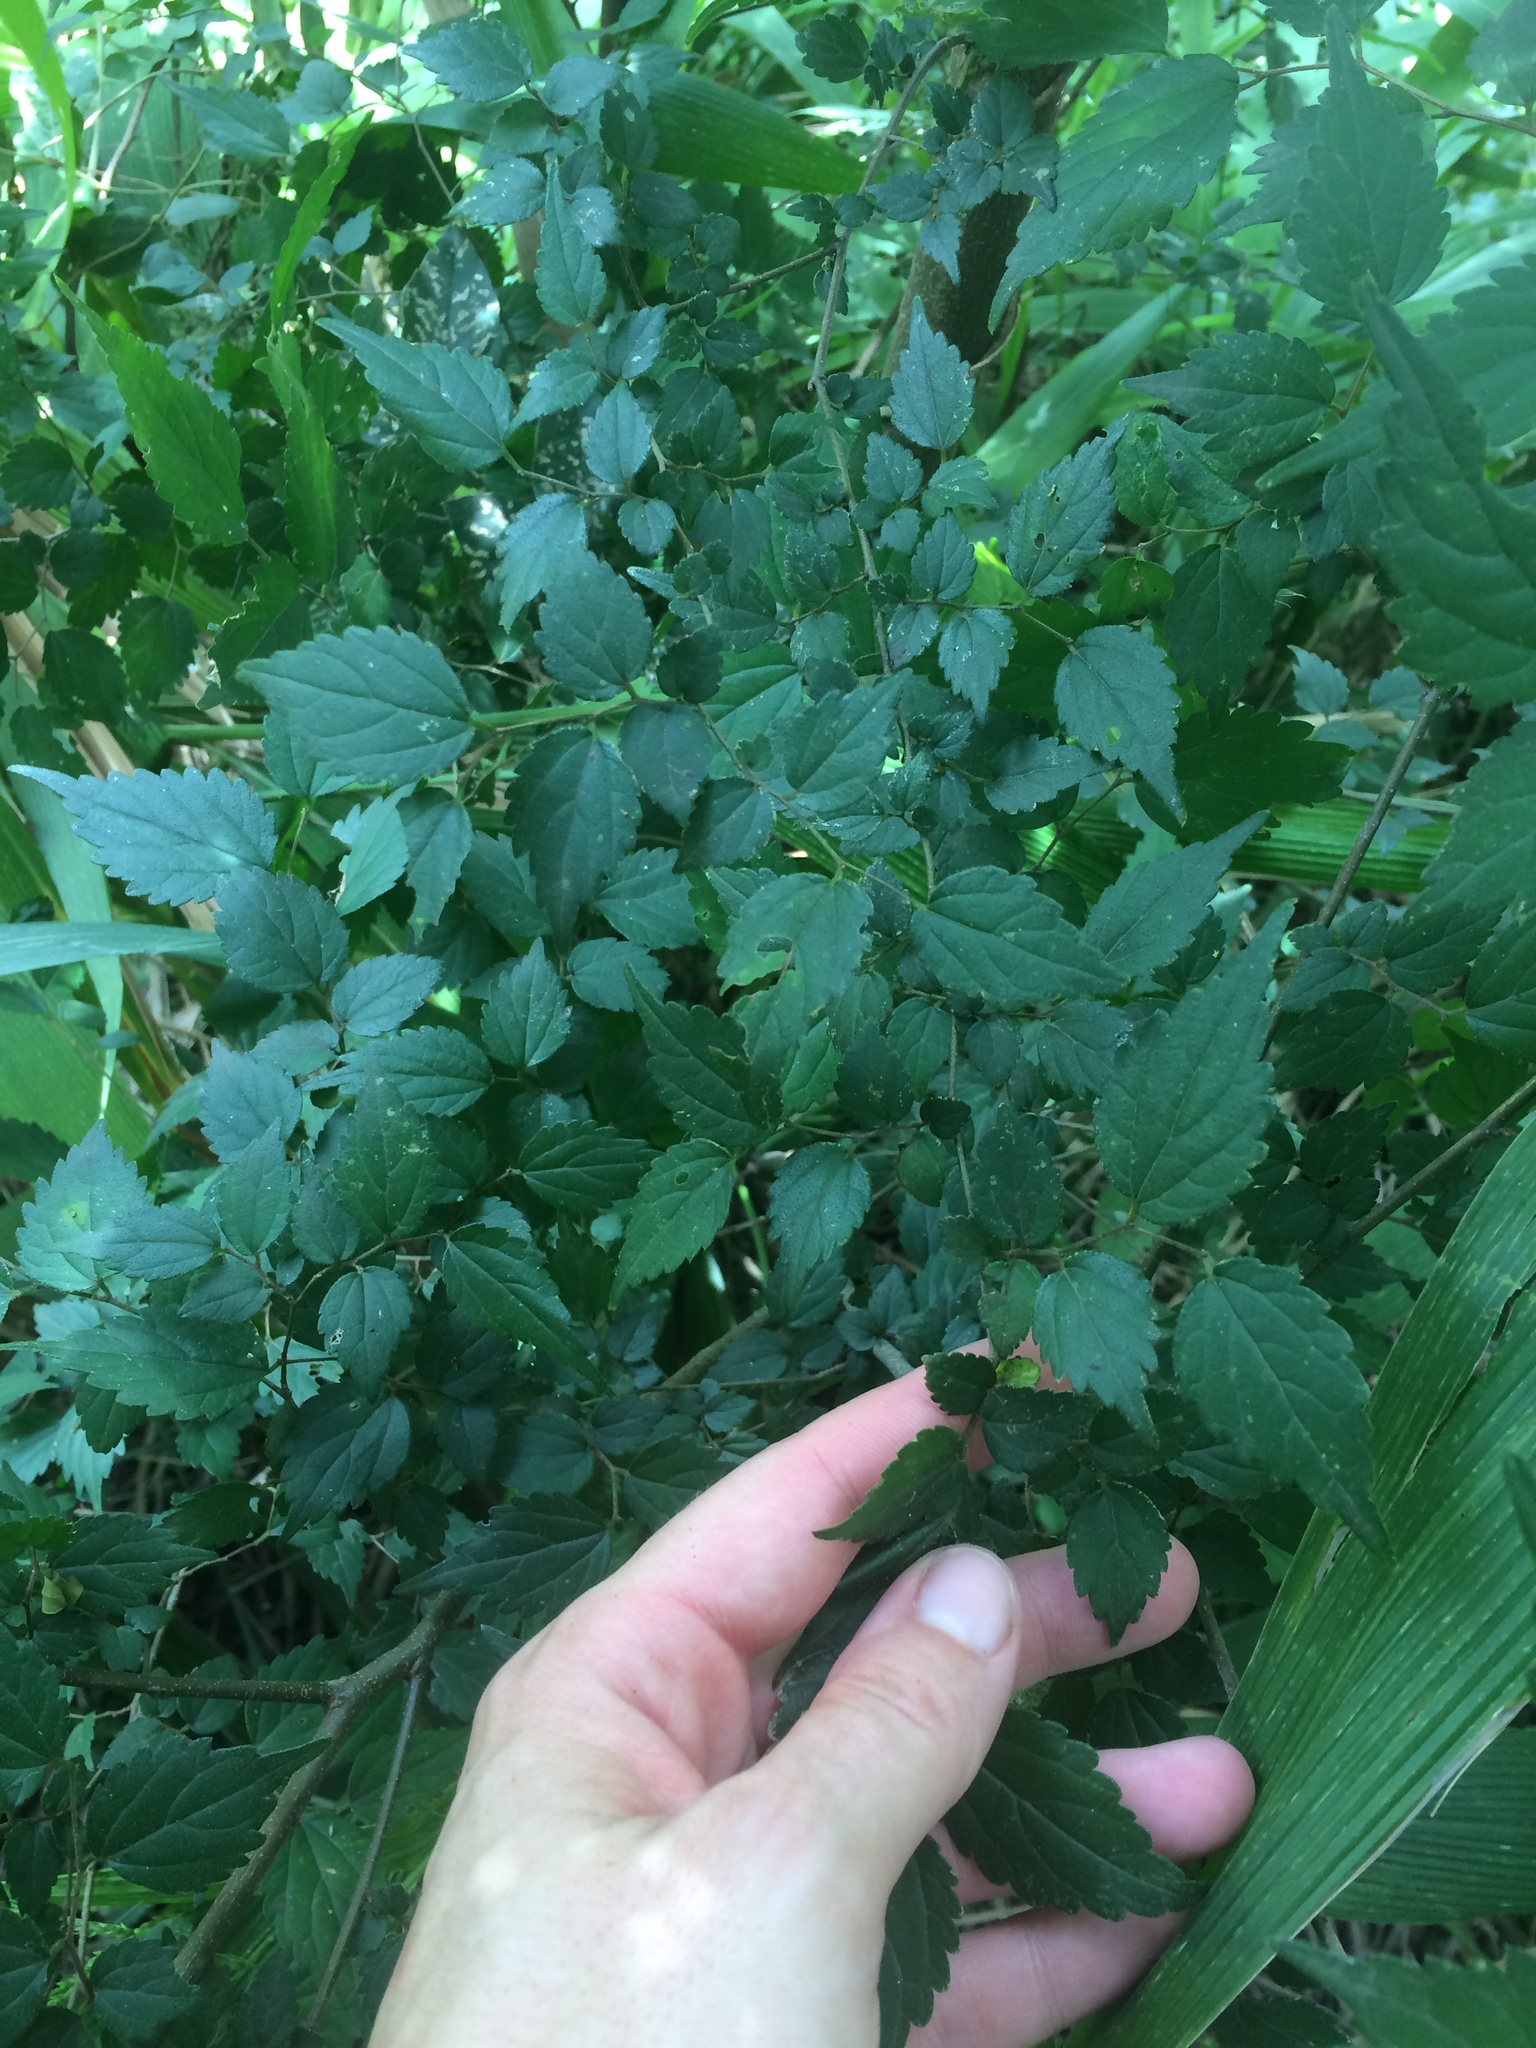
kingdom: Plantae
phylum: Tracheophyta
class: Magnoliopsida
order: Rosales
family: Cannabaceae
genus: Celtis
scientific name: Celtis africana
